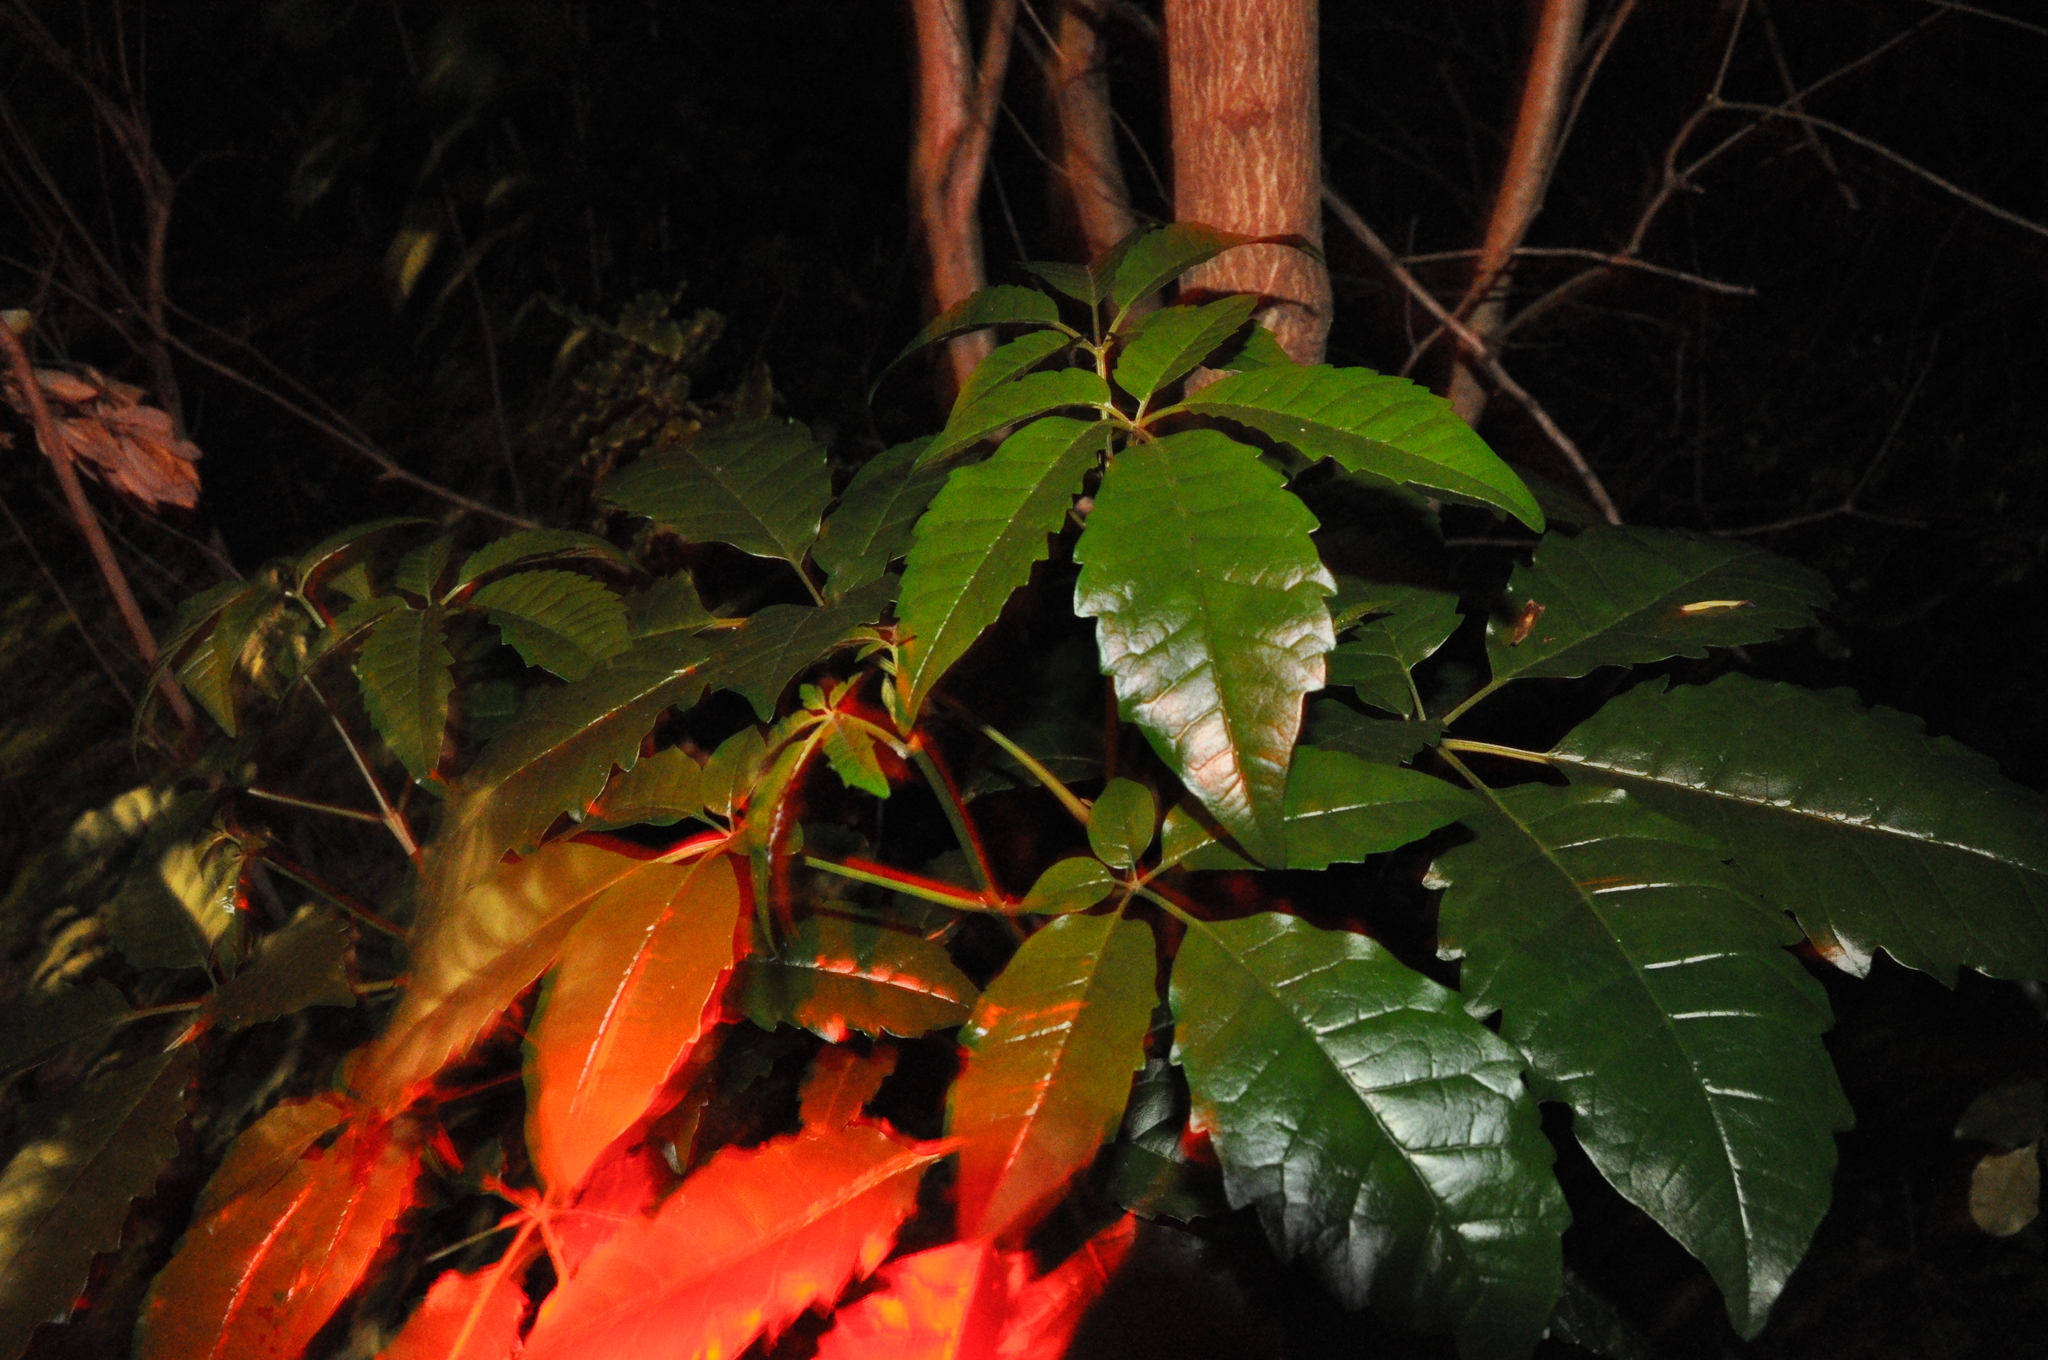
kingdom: Plantae
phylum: Tracheophyta
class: Magnoliopsida
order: Lamiales
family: Lamiaceae
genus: Vitex
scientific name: Vitex lucens
